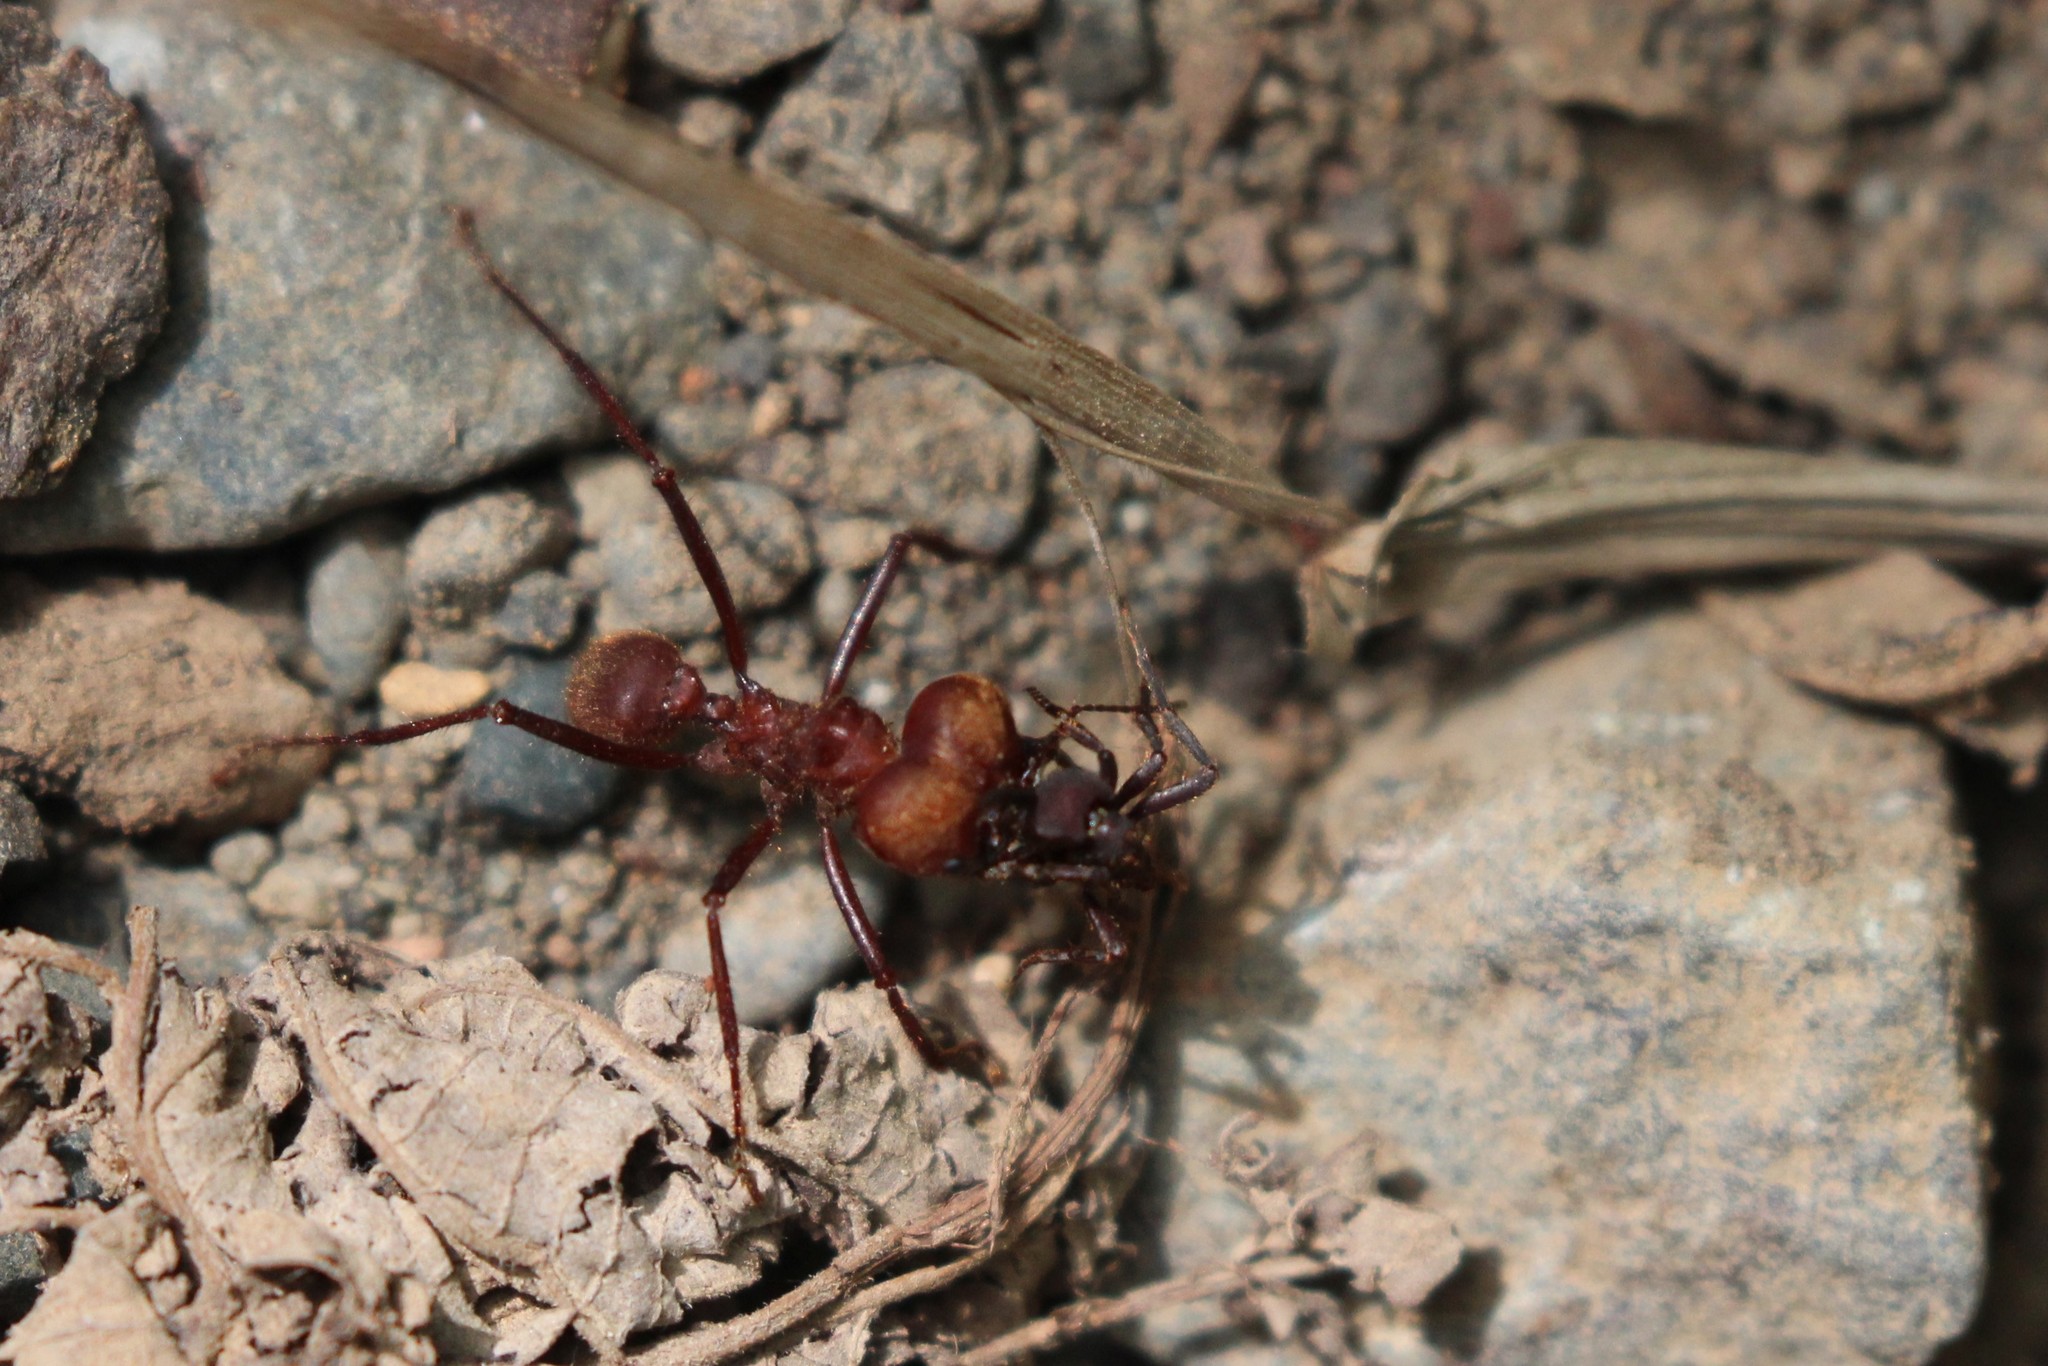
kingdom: Animalia
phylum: Arthropoda
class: Insecta
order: Hymenoptera
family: Formicidae
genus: Atta
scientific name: Atta cephalotes
